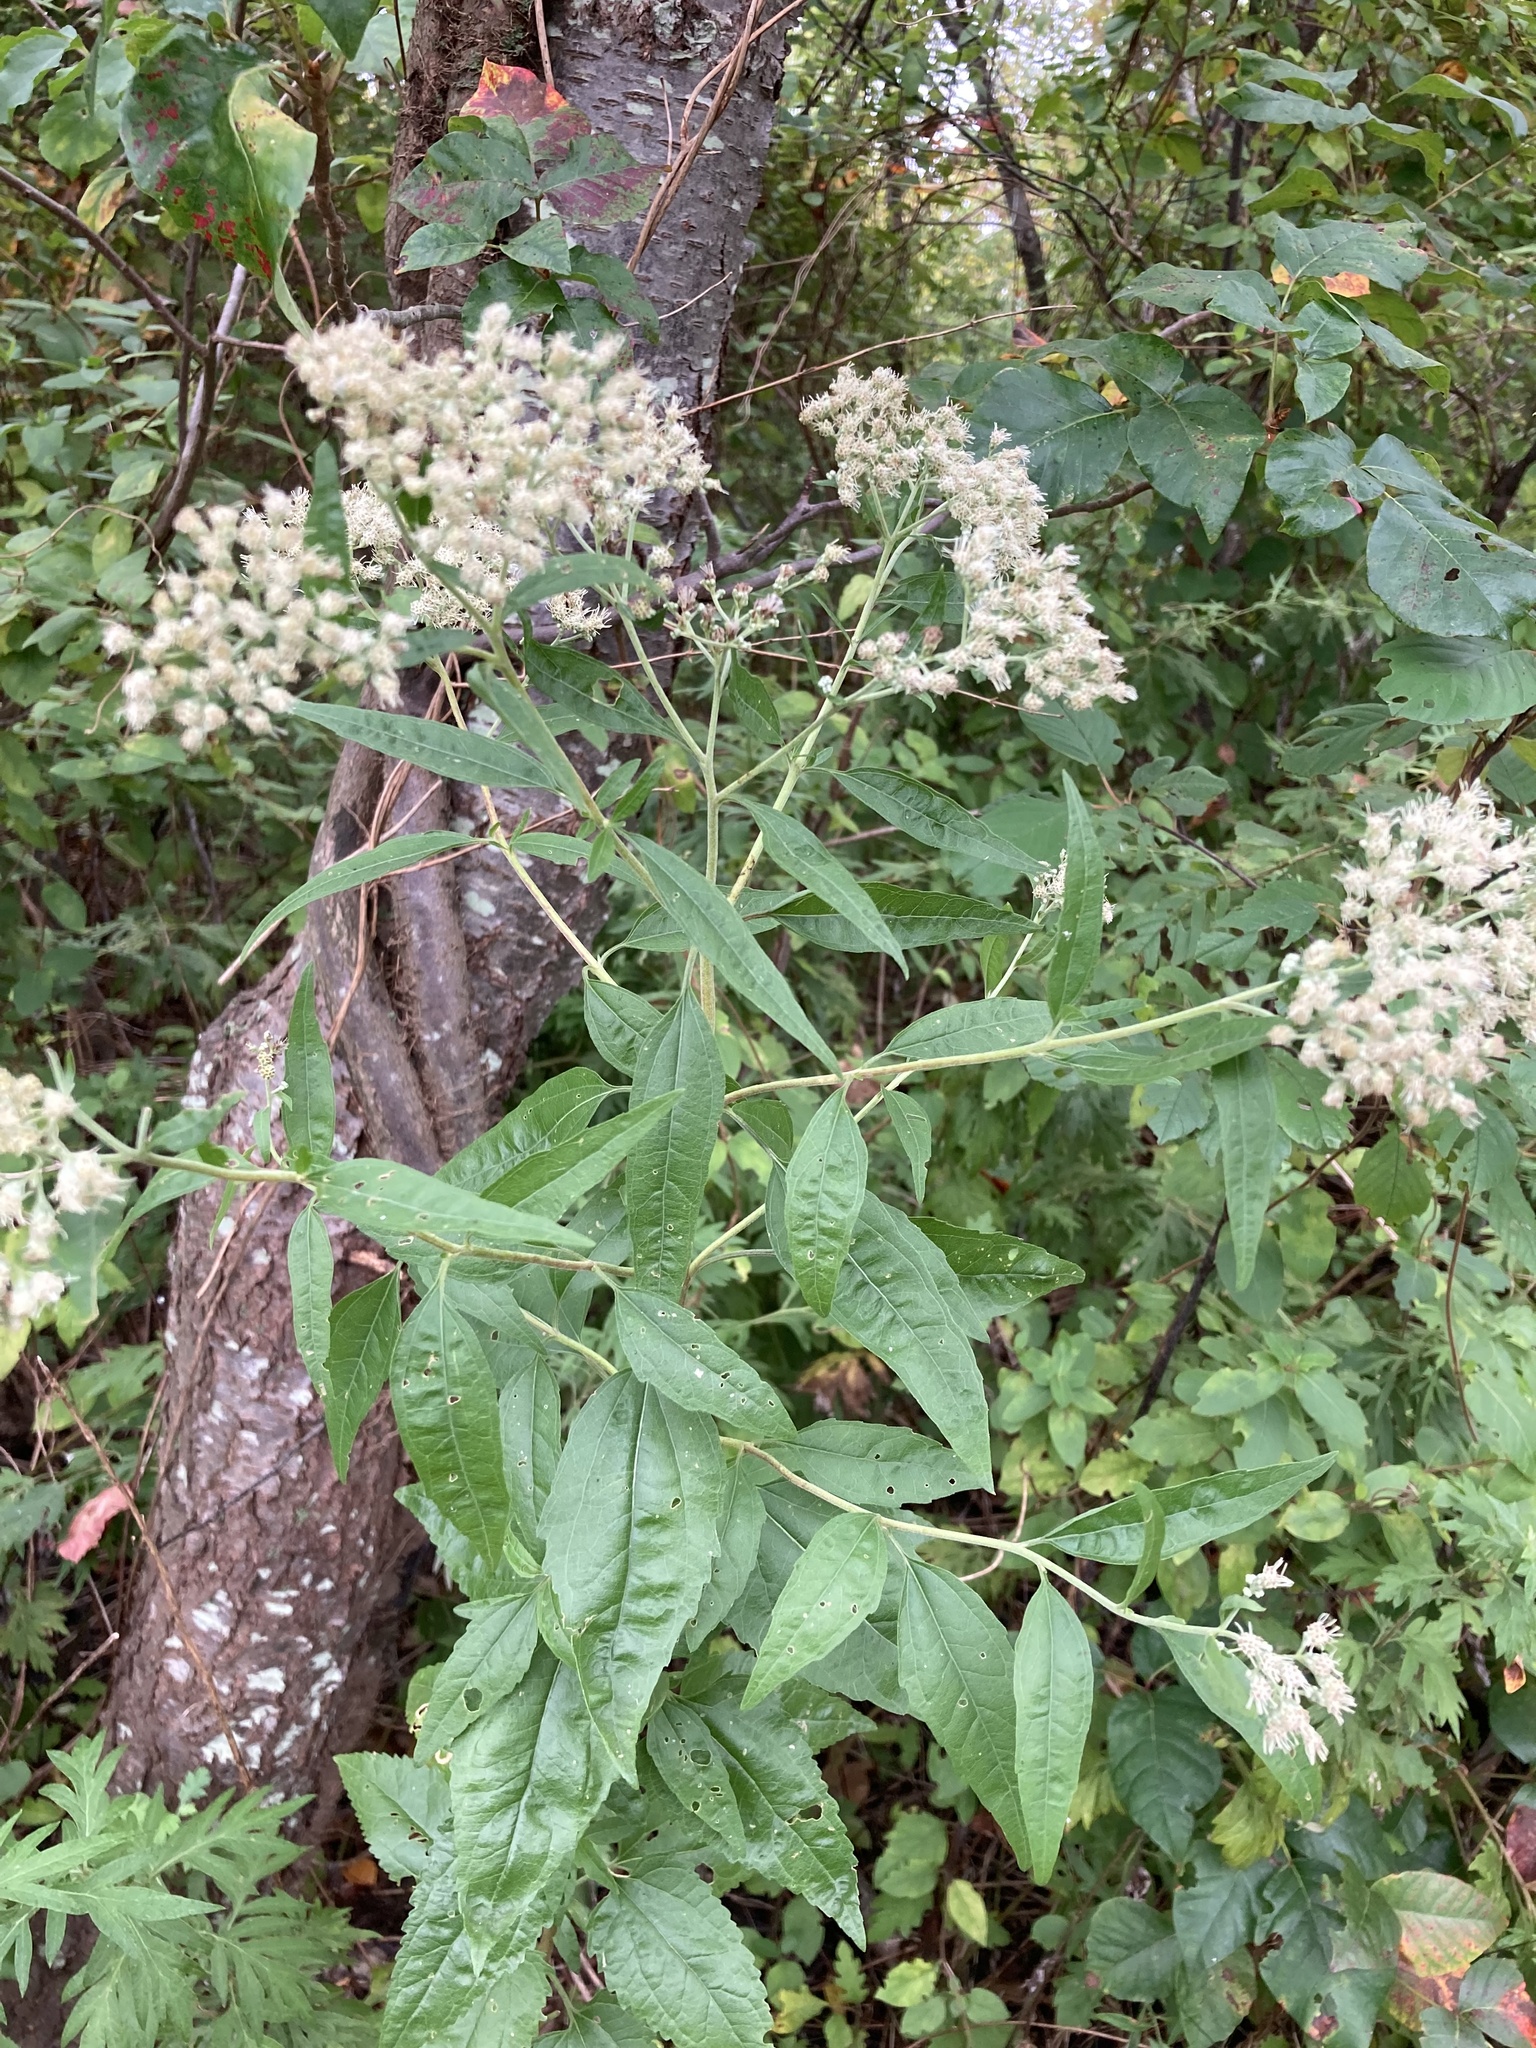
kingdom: Plantae
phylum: Tracheophyta
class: Magnoliopsida
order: Asterales
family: Asteraceae
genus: Eupatorium
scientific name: Eupatorium serotinum
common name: Late boneset
